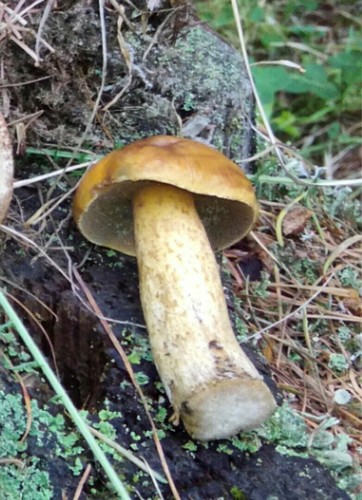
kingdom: Fungi
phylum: Basidiomycota
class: Agaricomycetes
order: Boletales
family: Suillaceae
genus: Suillus
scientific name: Suillus plorans
